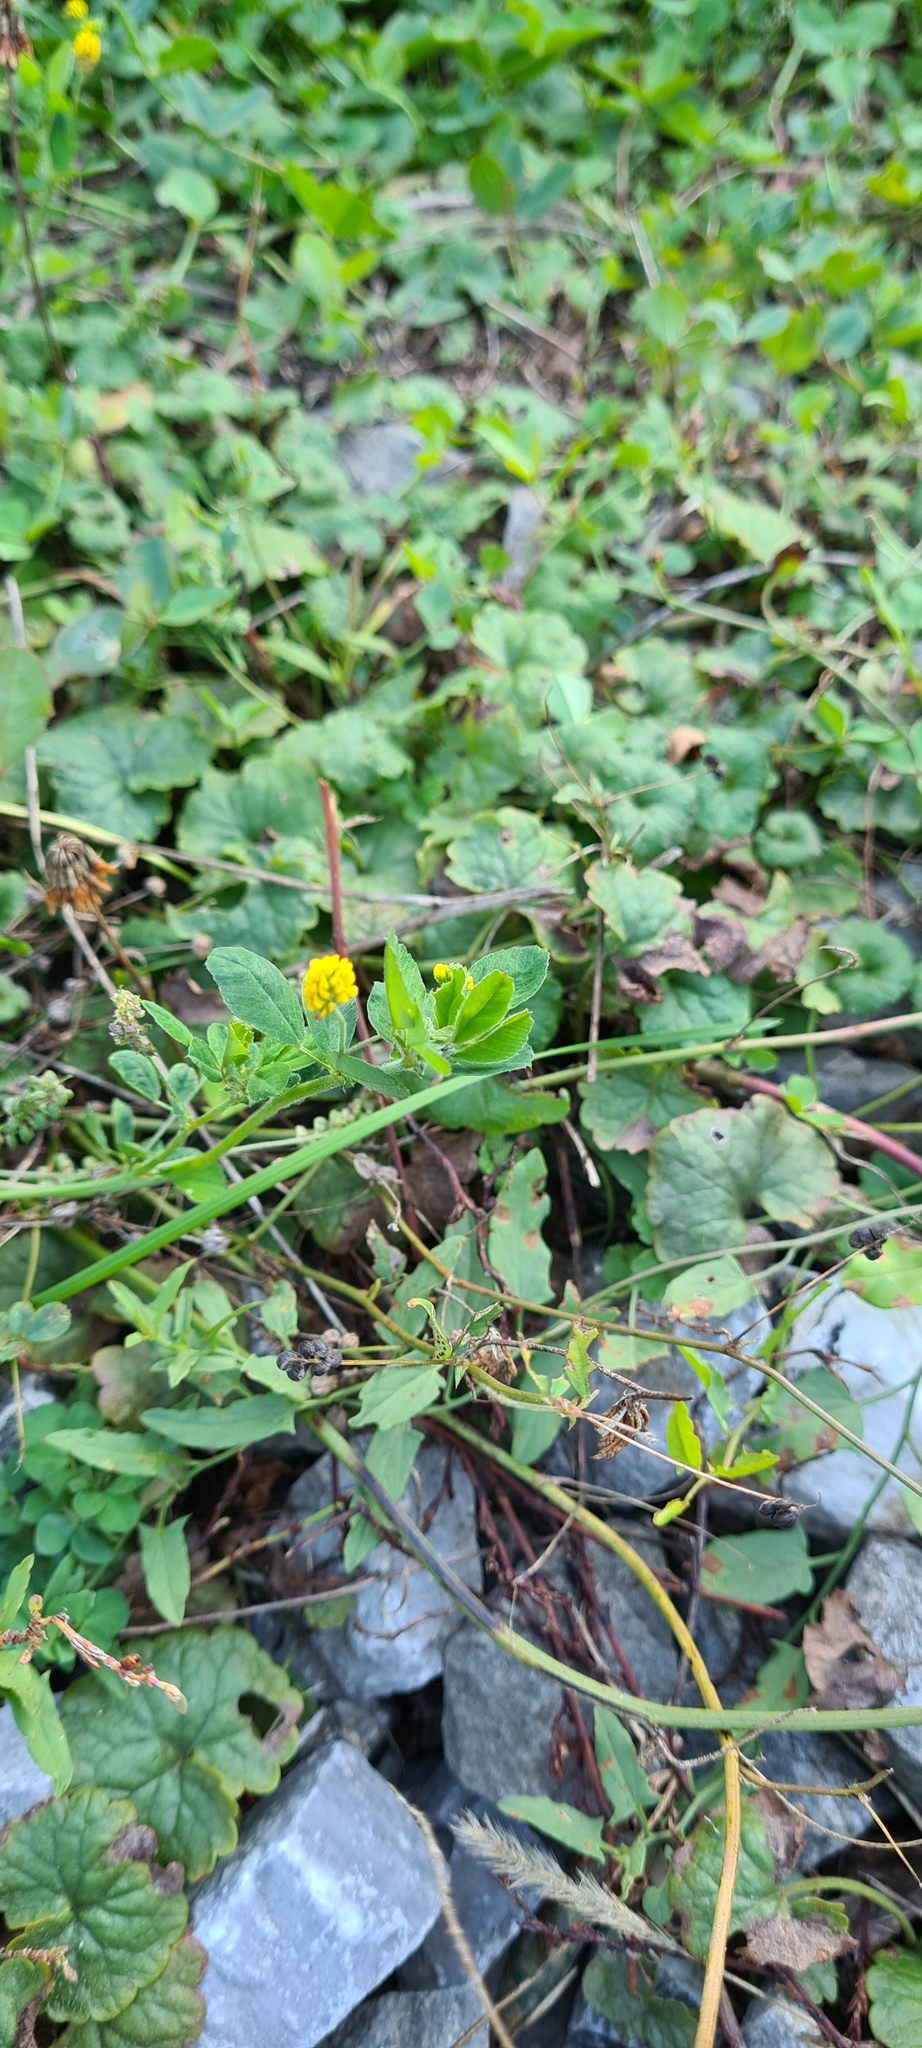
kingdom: Plantae
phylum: Tracheophyta
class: Magnoliopsida
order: Fabales
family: Fabaceae
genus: Medicago
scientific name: Medicago lupulina
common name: Black medick
